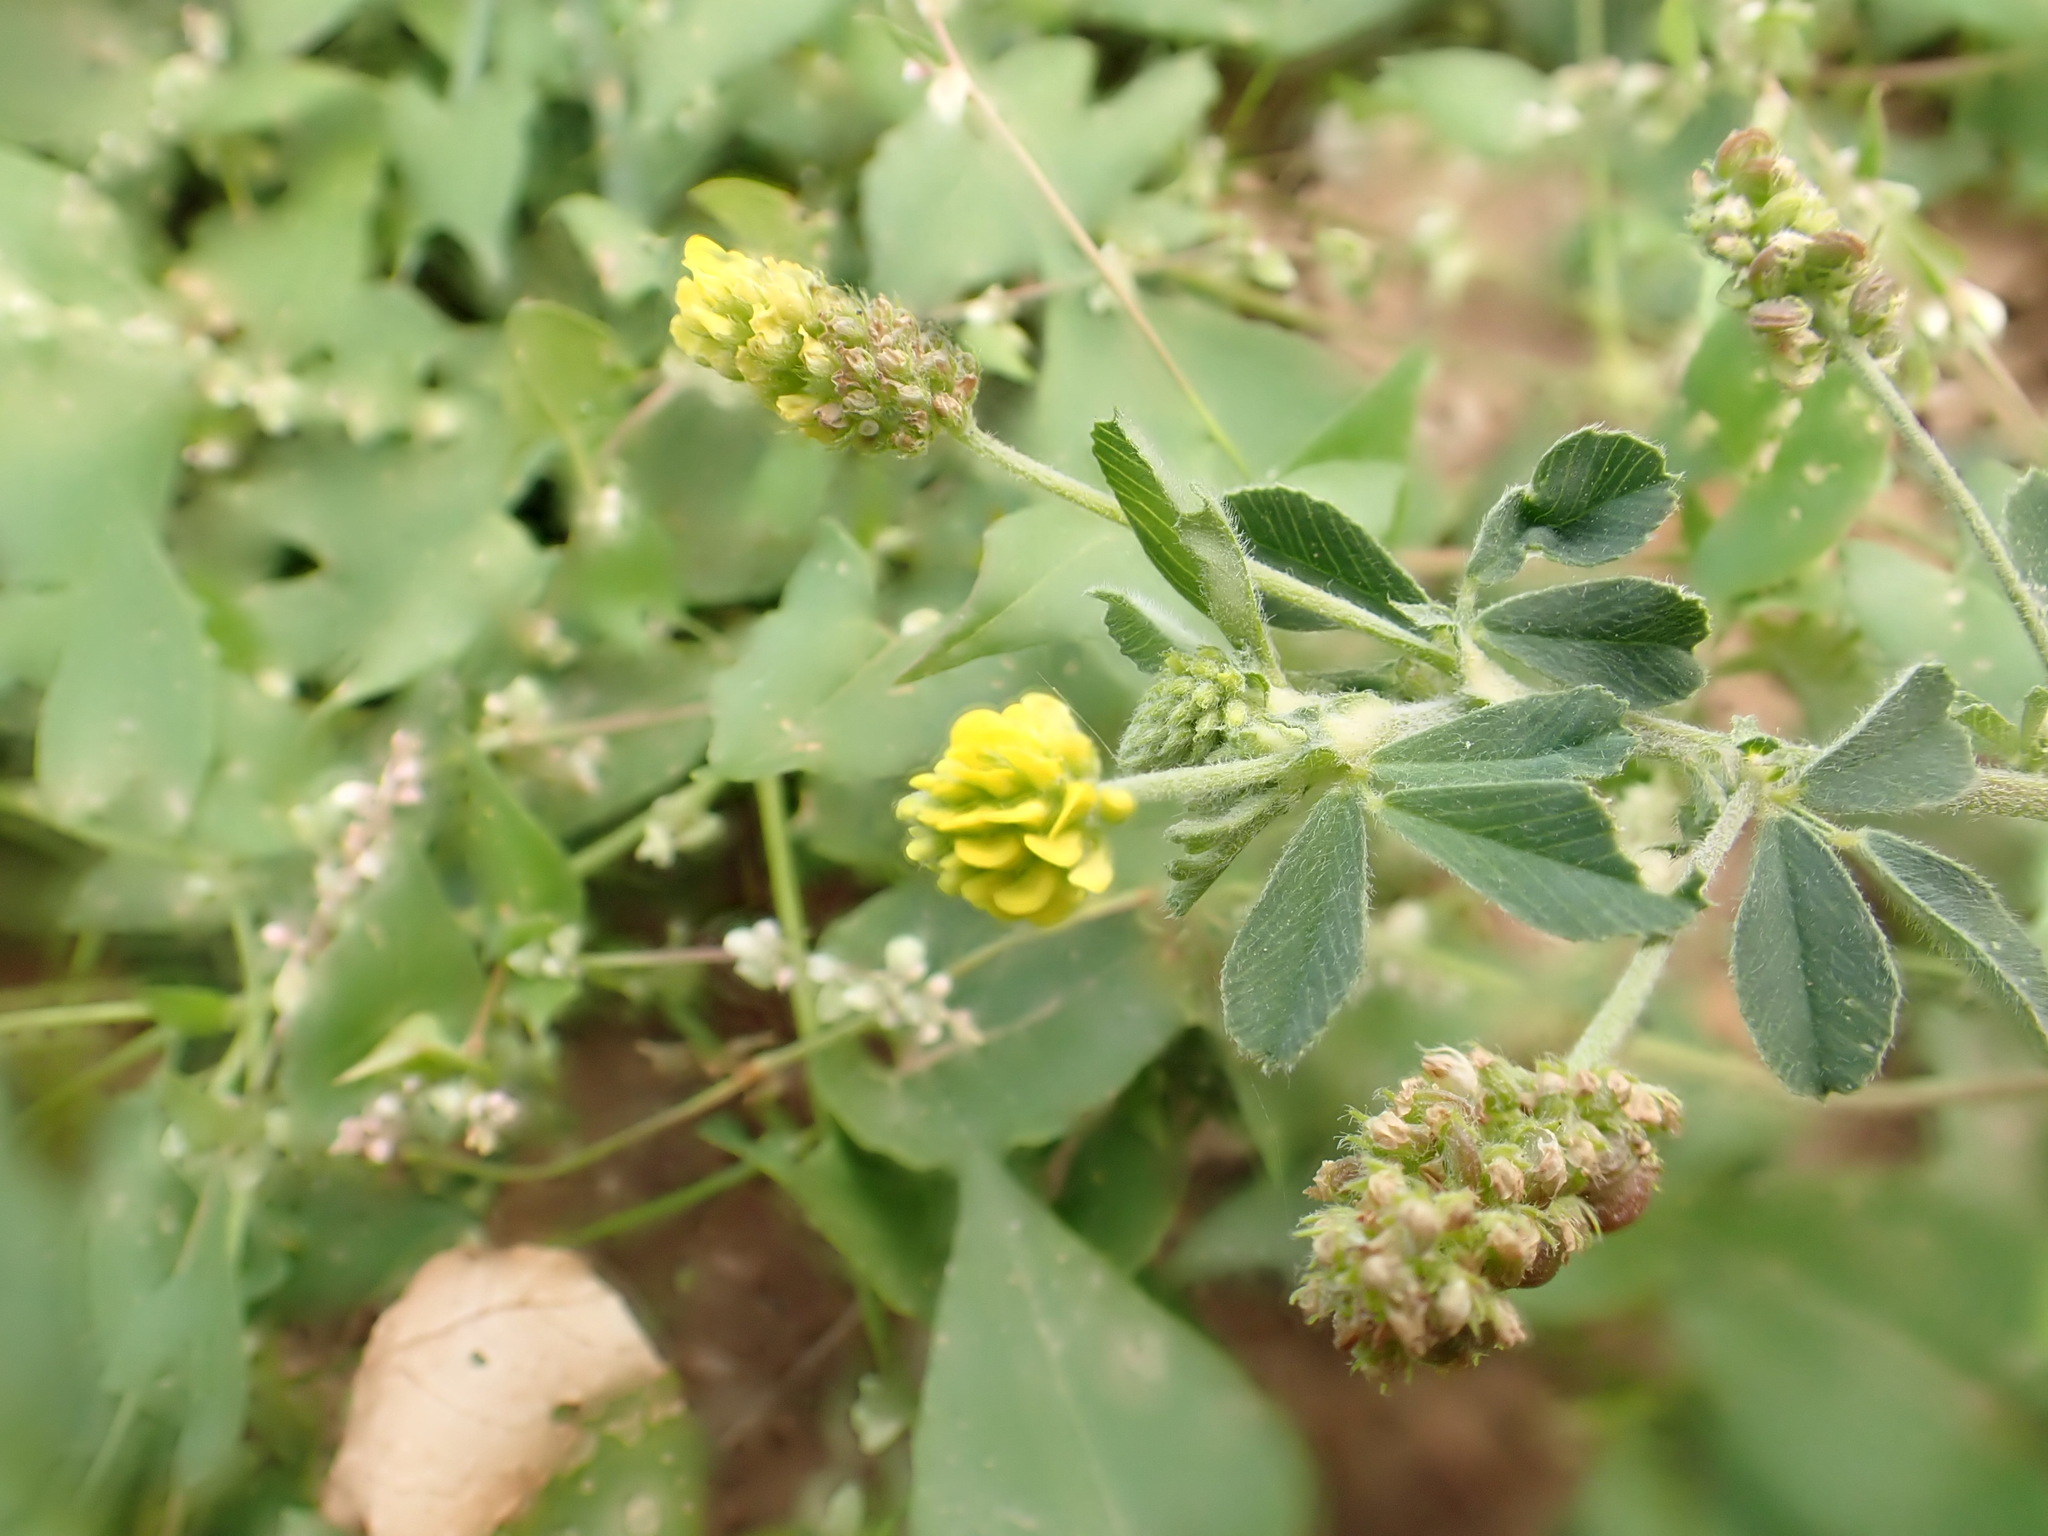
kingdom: Plantae
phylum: Tracheophyta
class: Magnoliopsida
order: Fabales
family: Fabaceae
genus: Medicago
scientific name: Medicago lupulina
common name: Black medick
